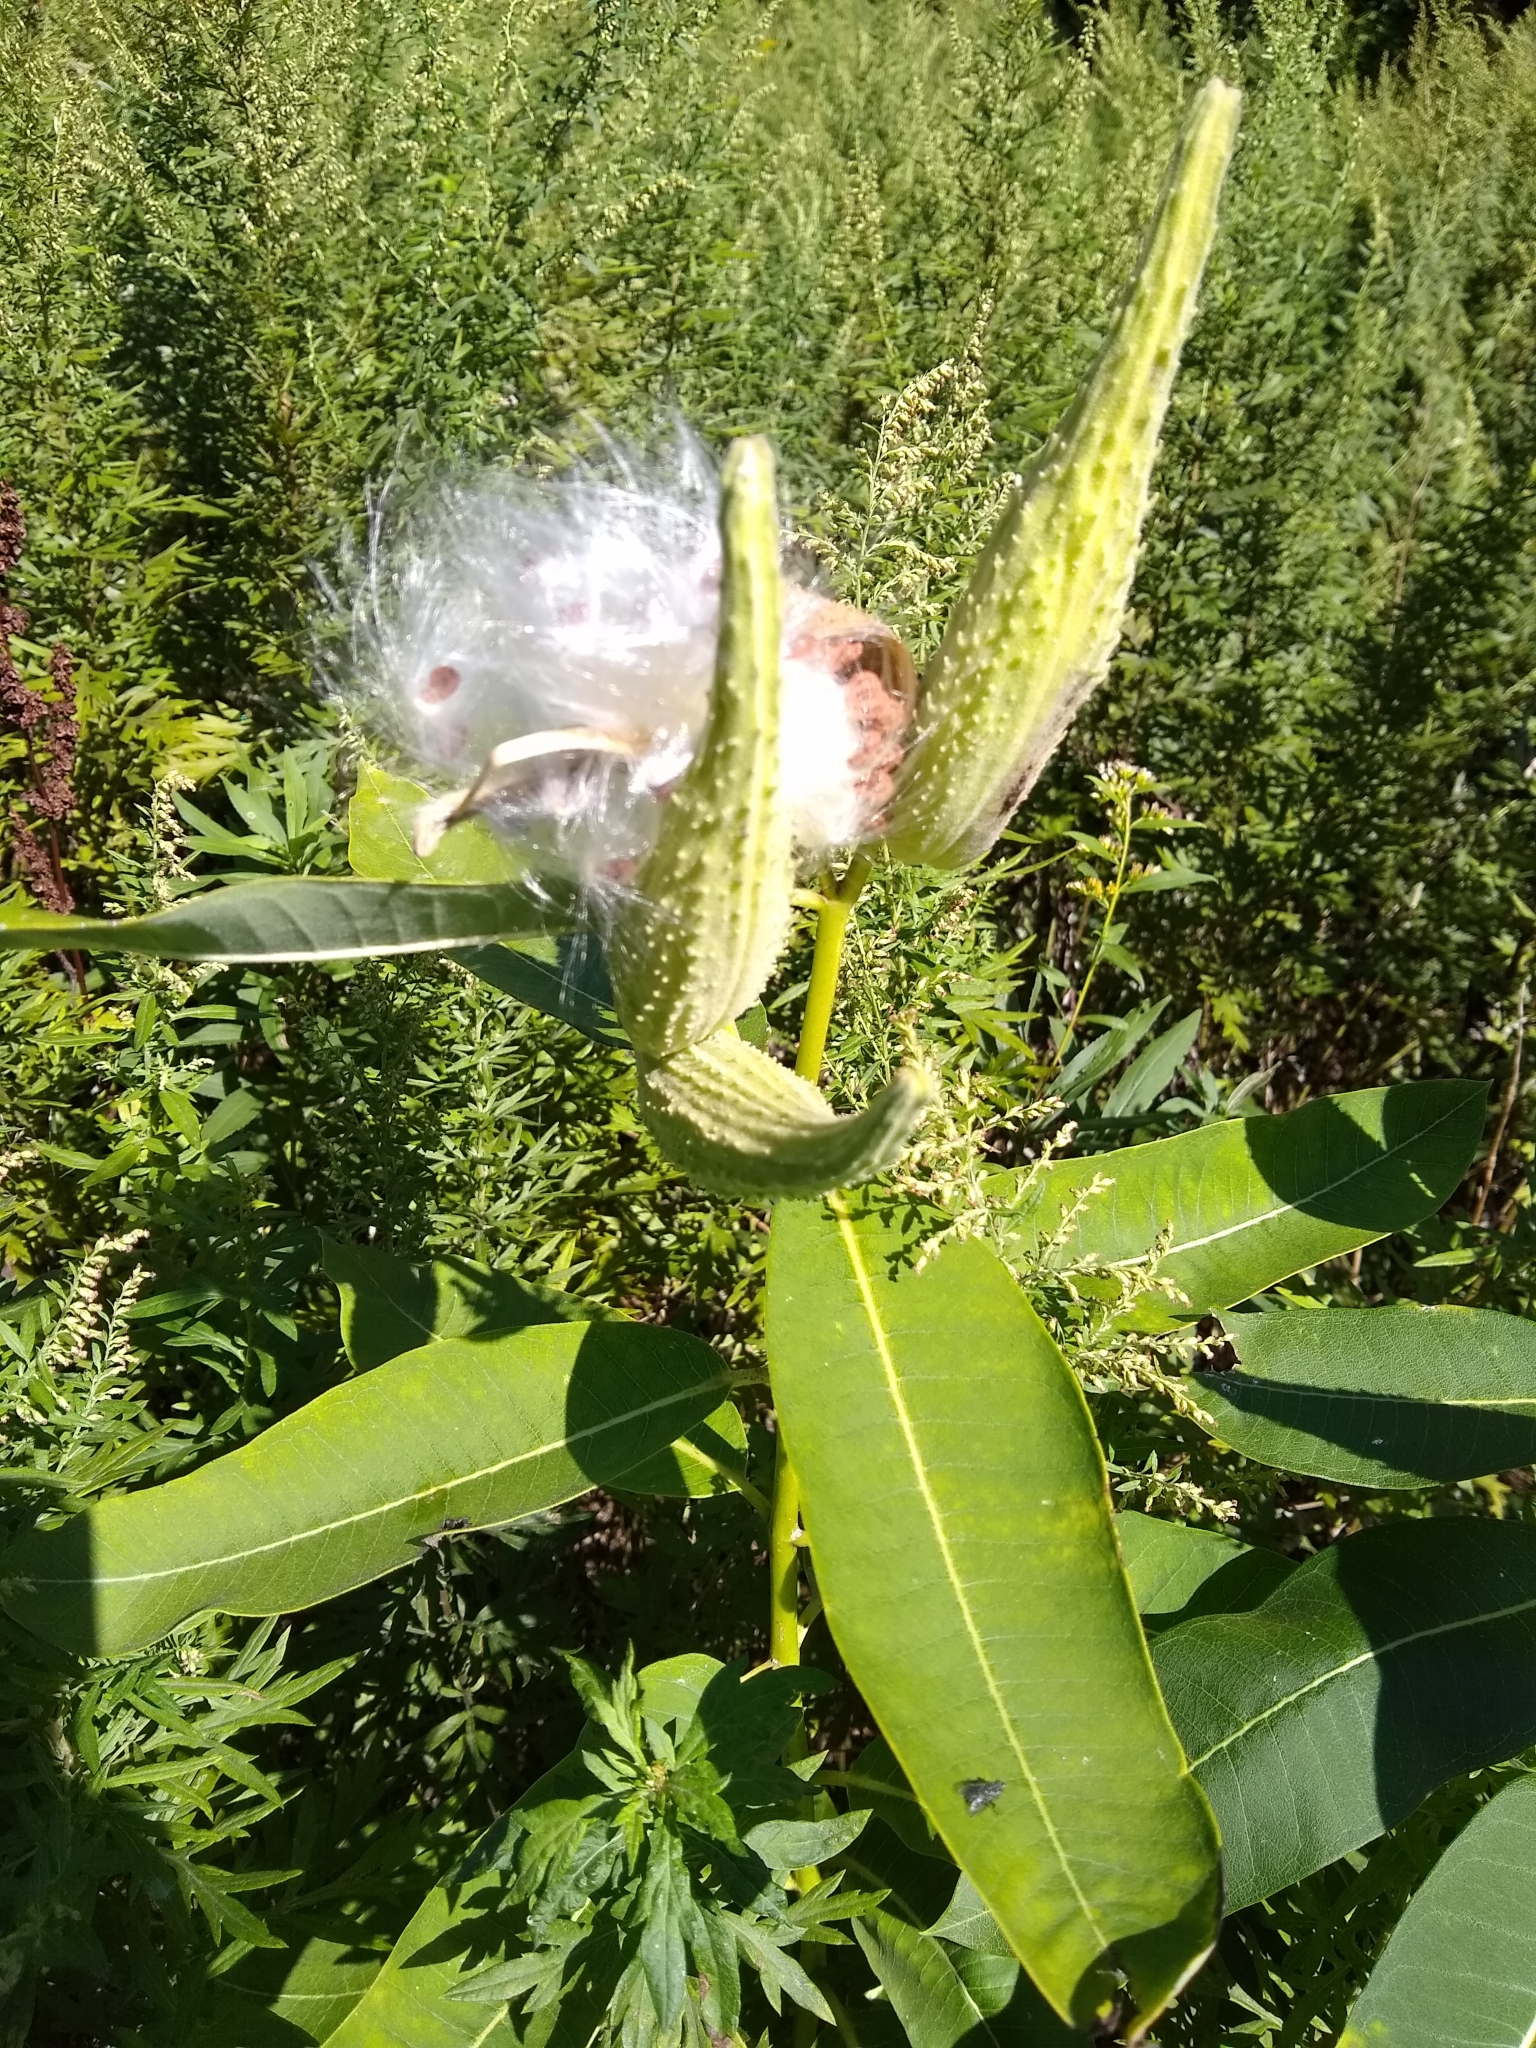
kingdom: Plantae
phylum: Tracheophyta
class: Magnoliopsida
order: Gentianales
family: Apocynaceae
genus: Asclepias
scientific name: Asclepias syriaca
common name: Common milkweed
